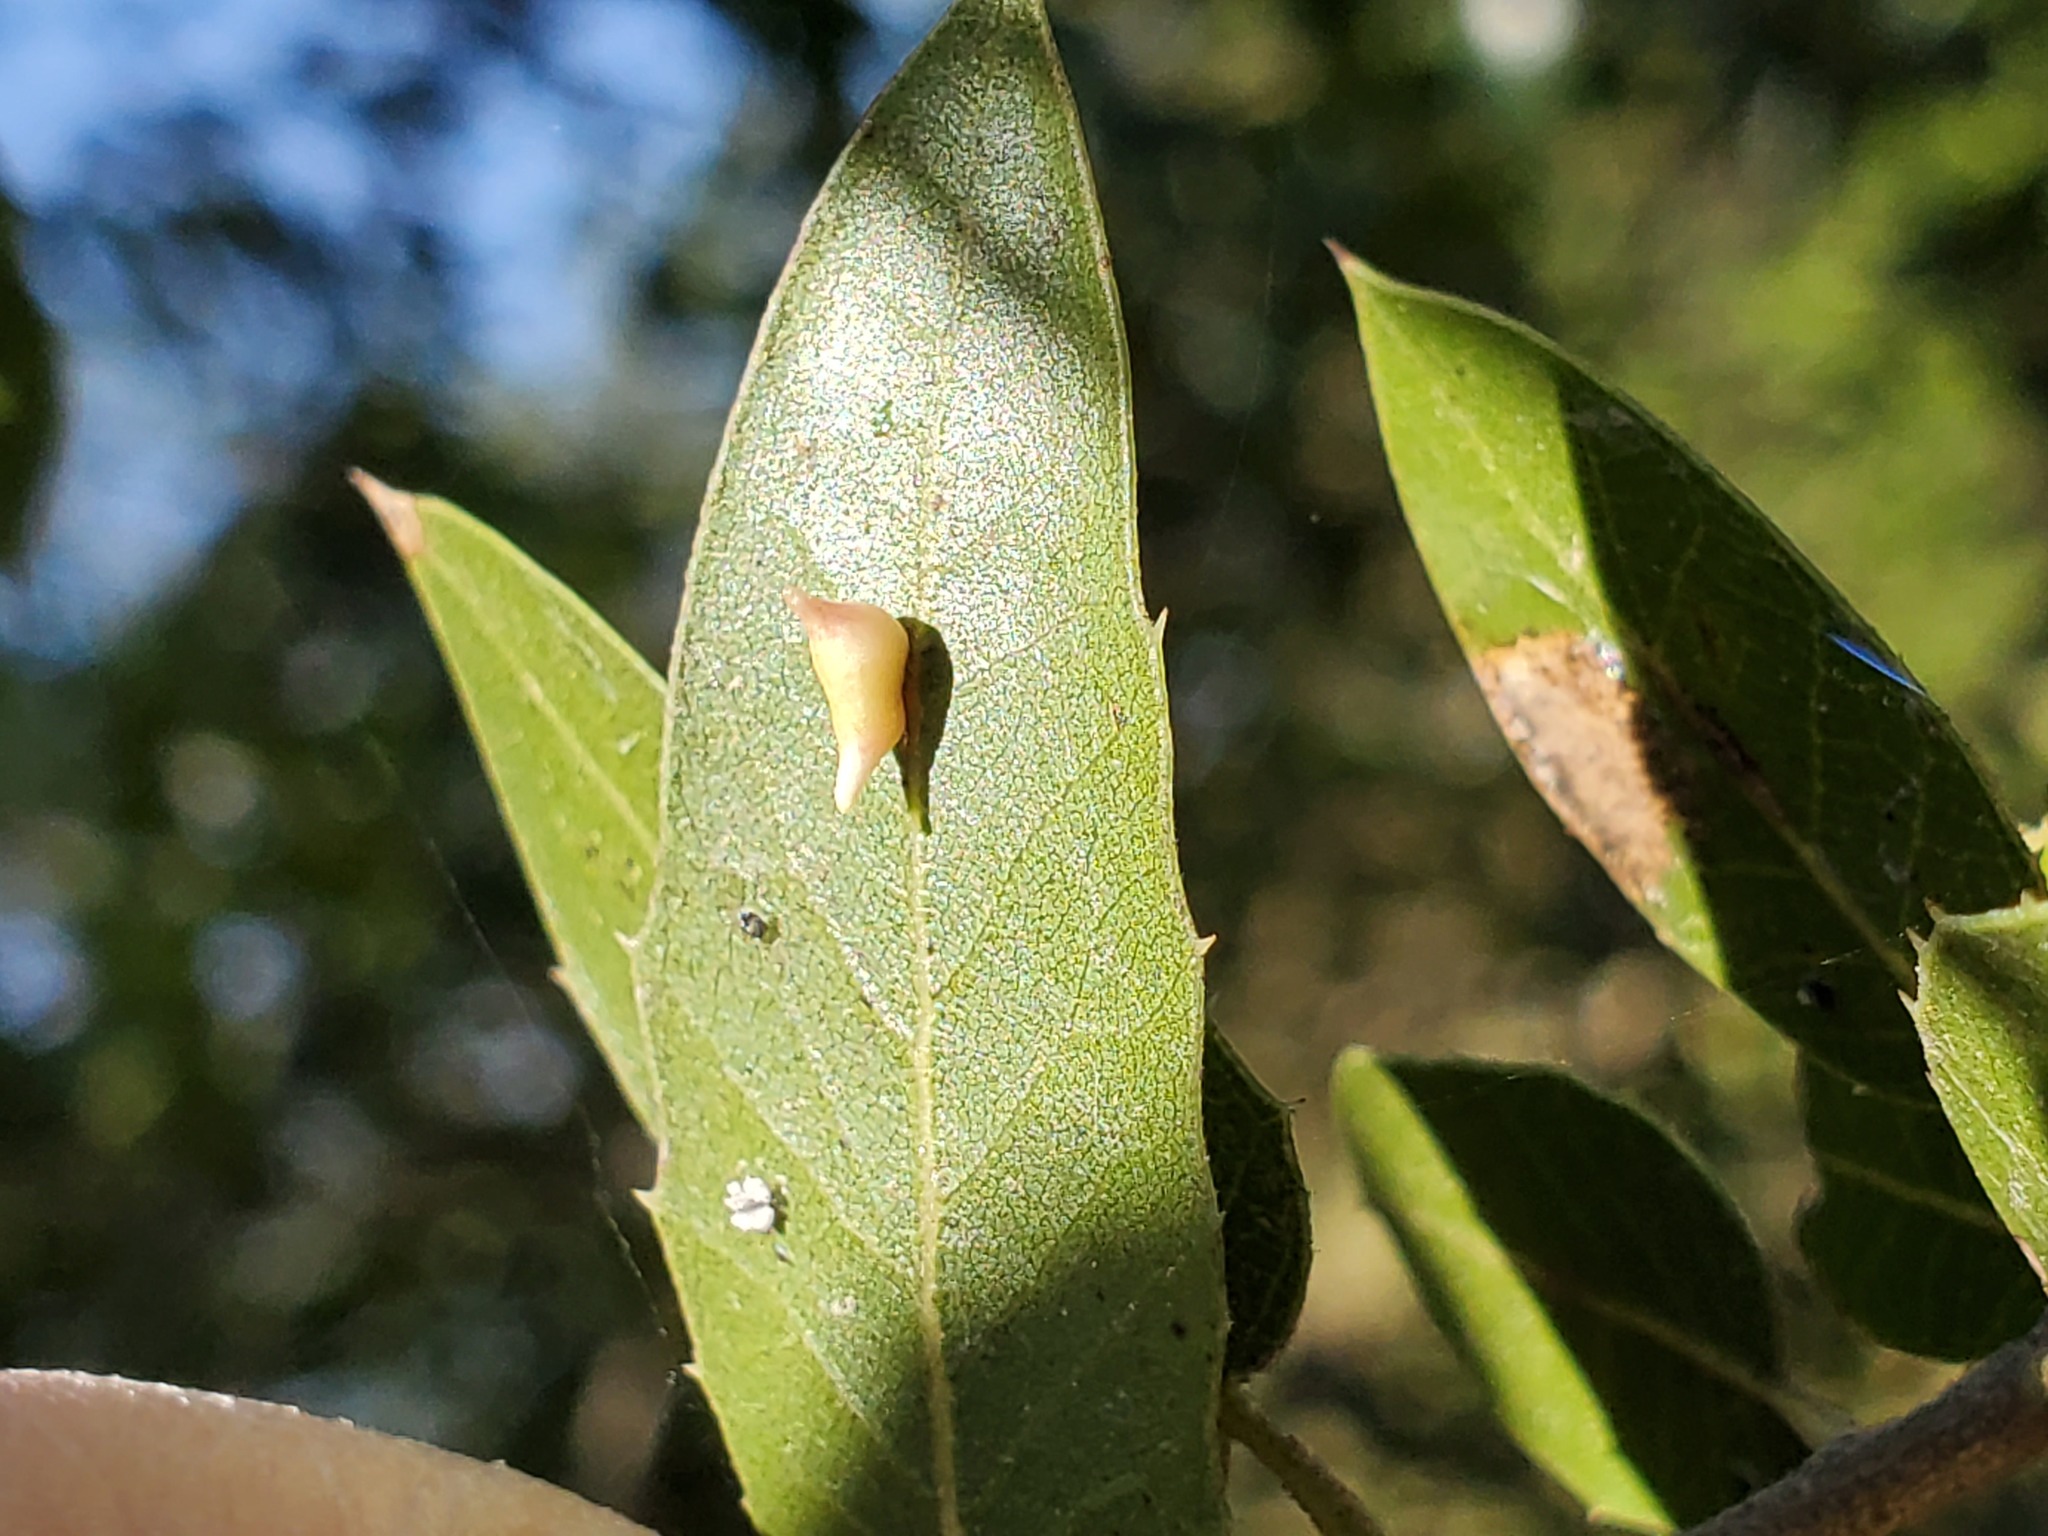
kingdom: Animalia
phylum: Arthropoda
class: Insecta
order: Hymenoptera
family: Cynipidae
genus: Dryocosmus
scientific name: Dryocosmus
